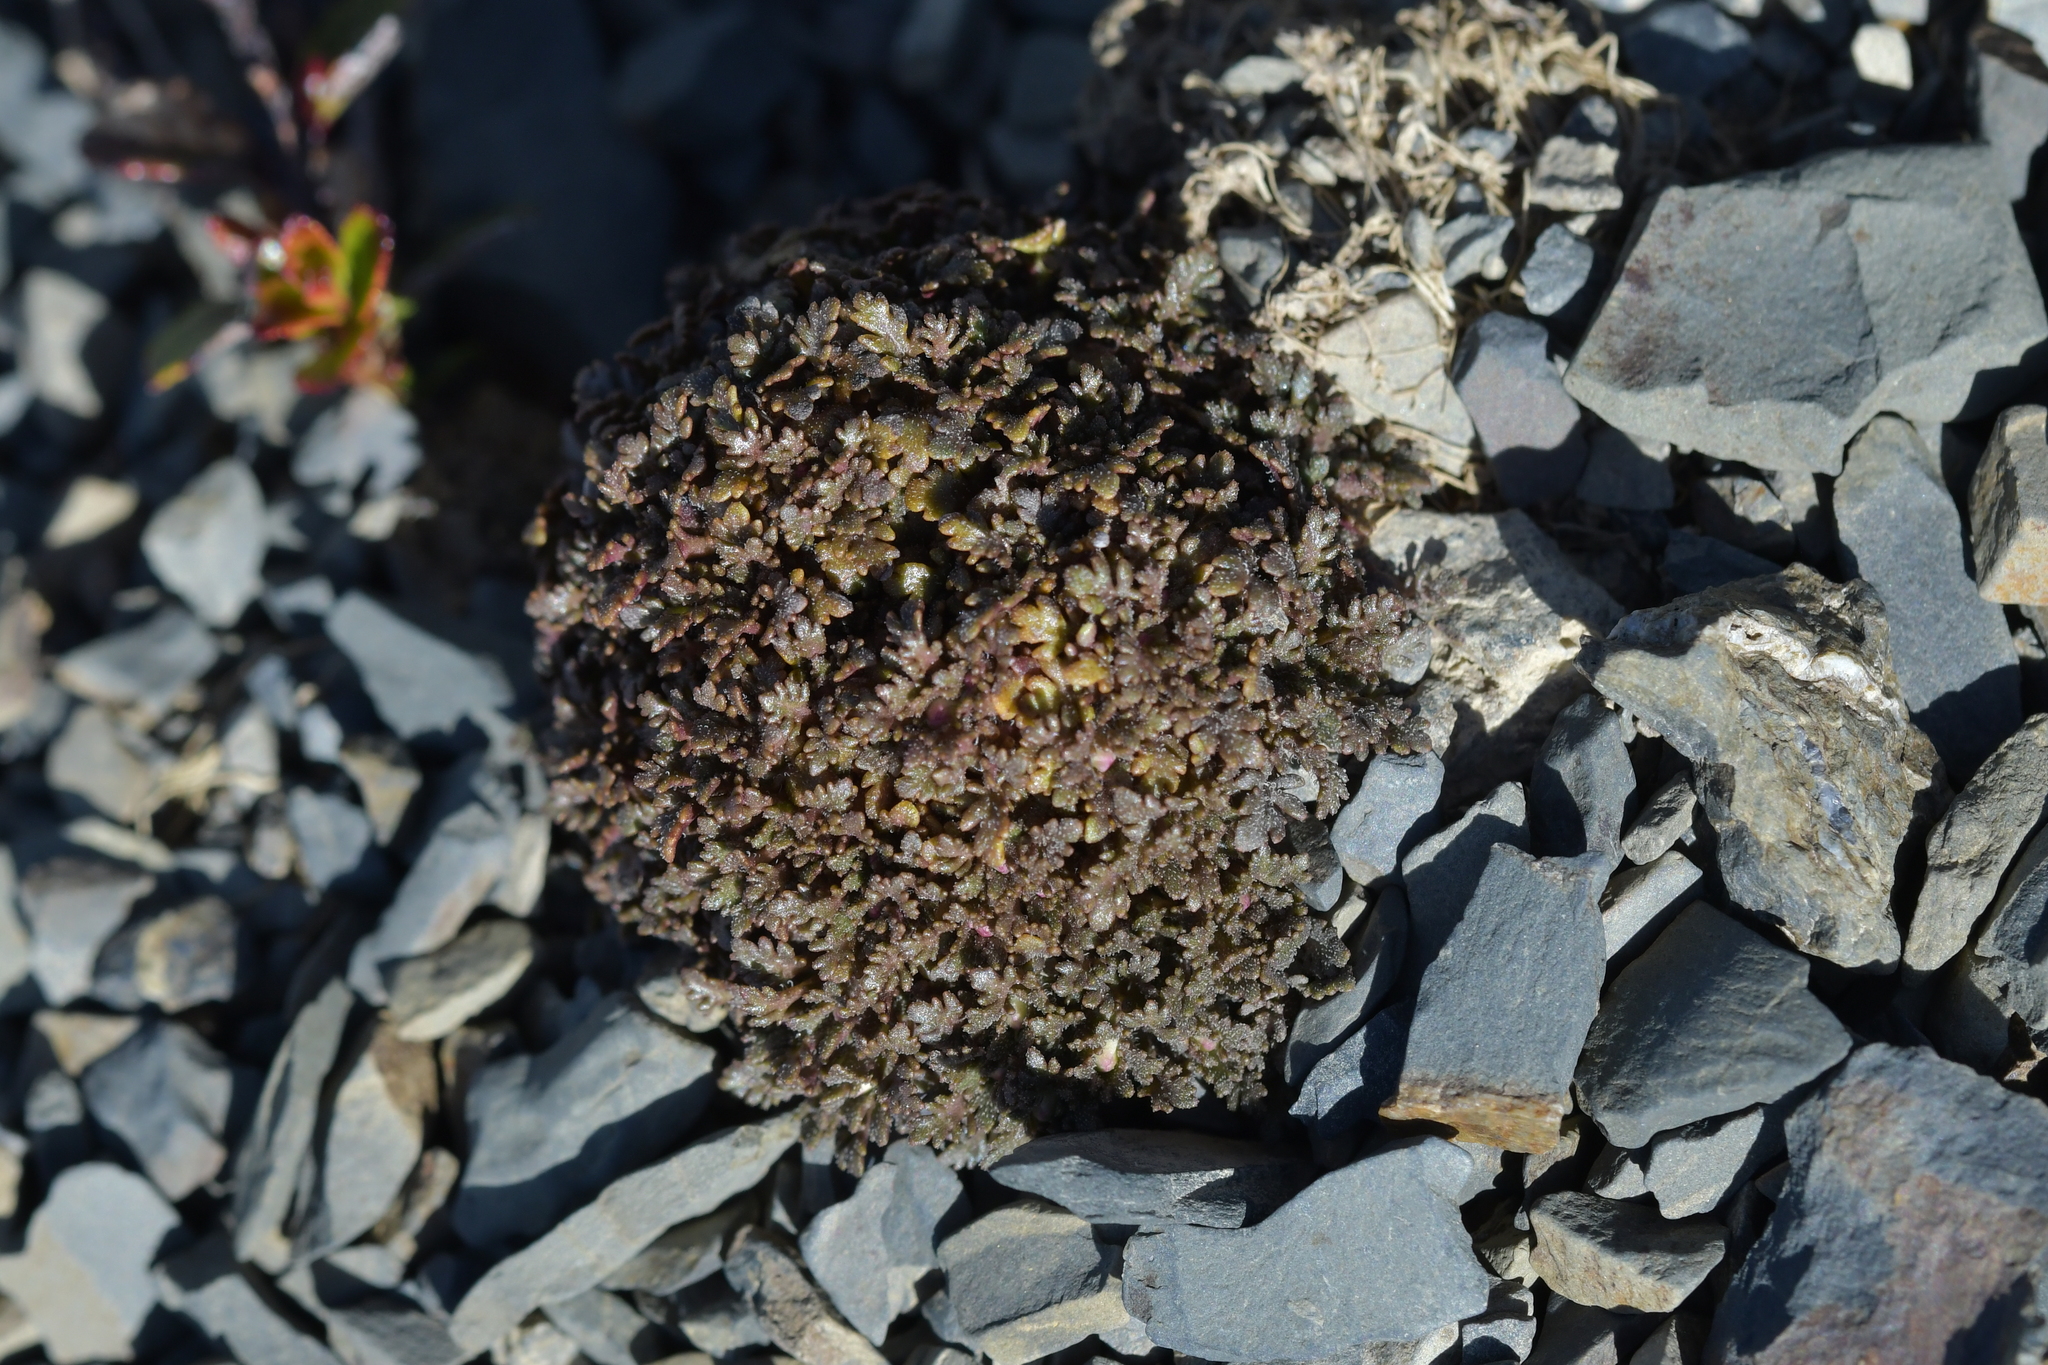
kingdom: Plantae
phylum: Tracheophyta
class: Magnoliopsida
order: Lamiales
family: Plantaginaceae
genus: Veronica
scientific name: Veronica cheesemanii
